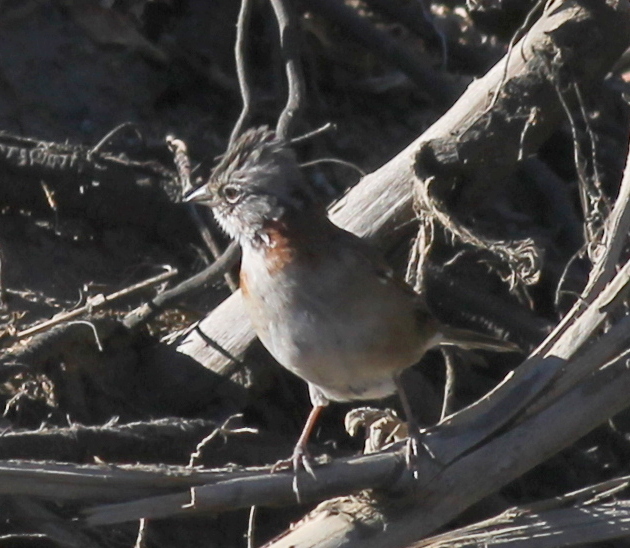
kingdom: Animalia
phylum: Chordata
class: Aves
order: Passeriformes
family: Passerellidae
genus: Zonotrichia
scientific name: Zonotrichia capensis
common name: Rufous-collared sparrow
